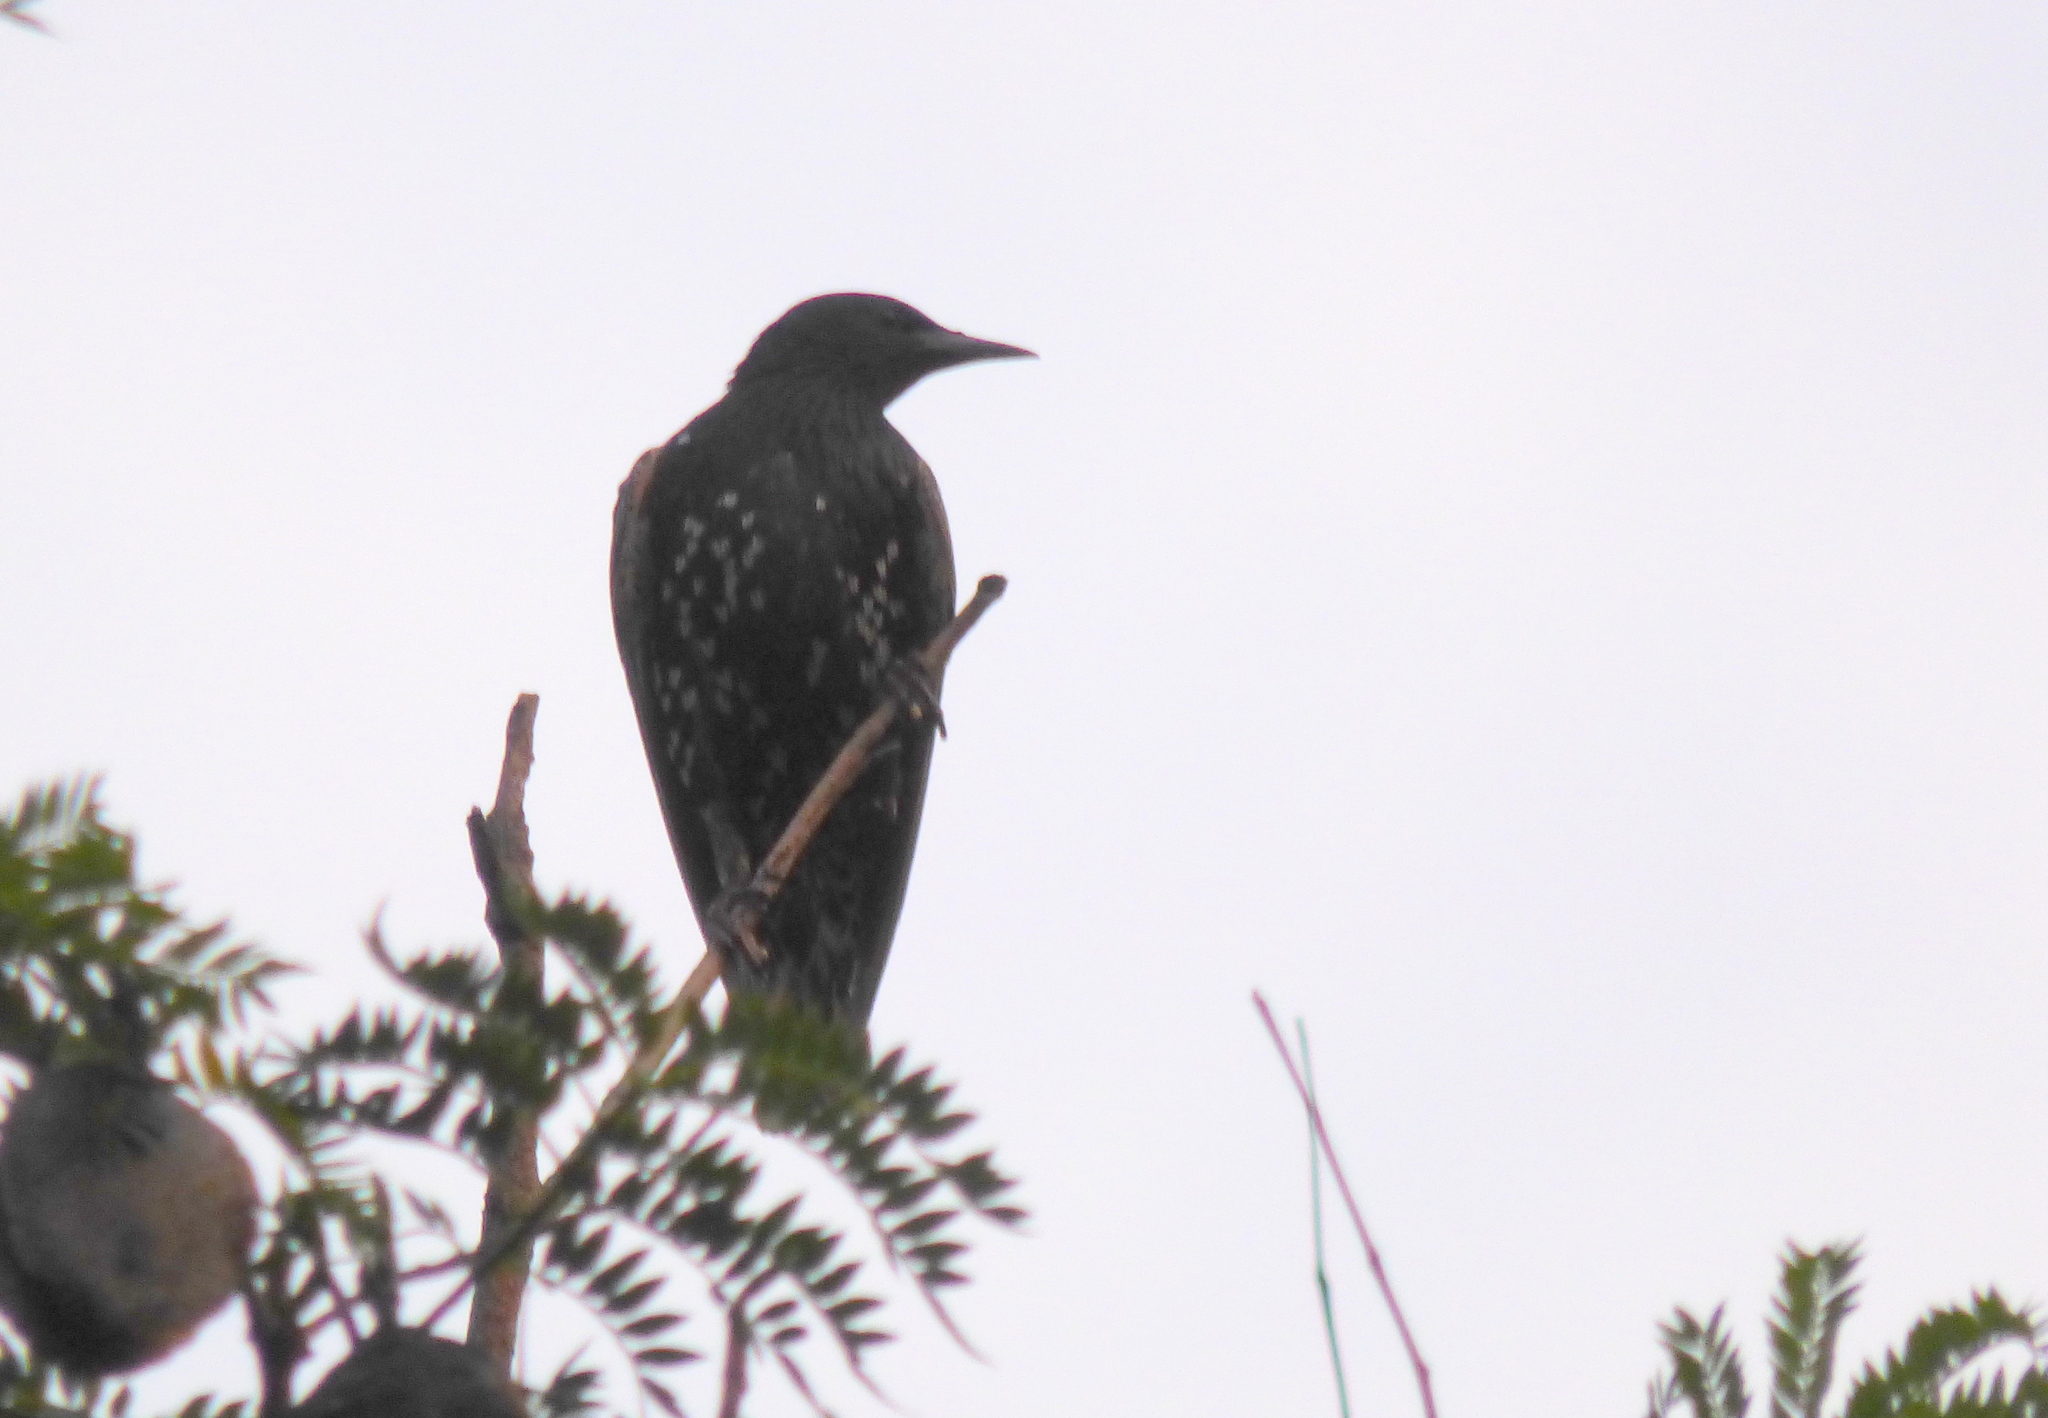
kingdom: Animalia
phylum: Chordata
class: Aves
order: Passeriformes
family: Sturnidae
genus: Sturnus
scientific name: Sturnus vulgaris
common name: Common starling
